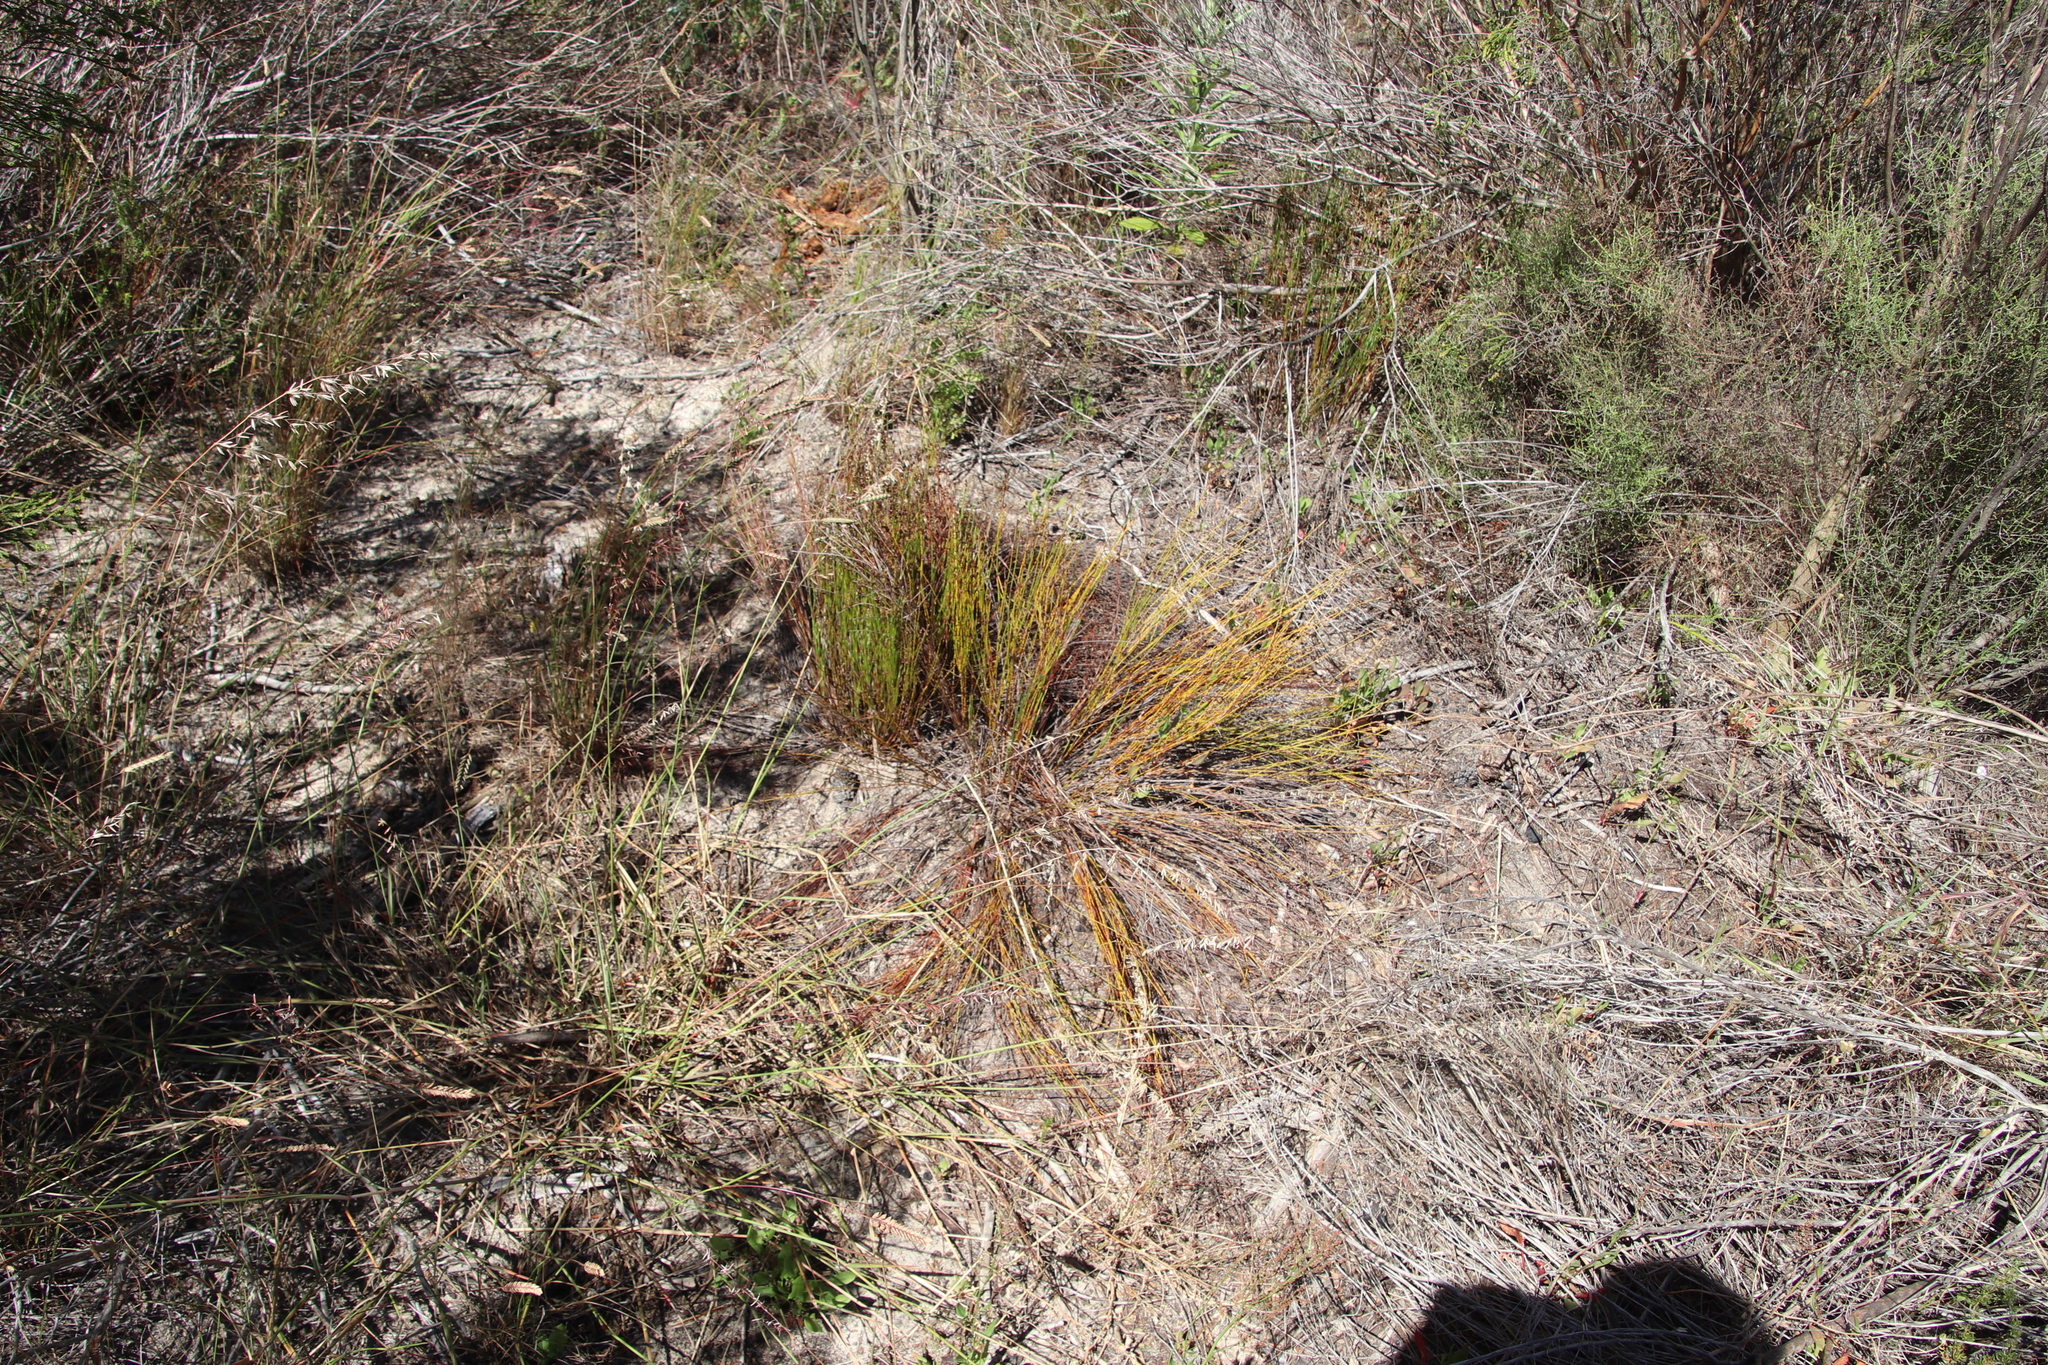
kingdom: Plantae
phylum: Tracheophyta
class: Liliopsida
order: Poales
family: Restionaceae
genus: Mastersiella
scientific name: Mastersiella digitata
